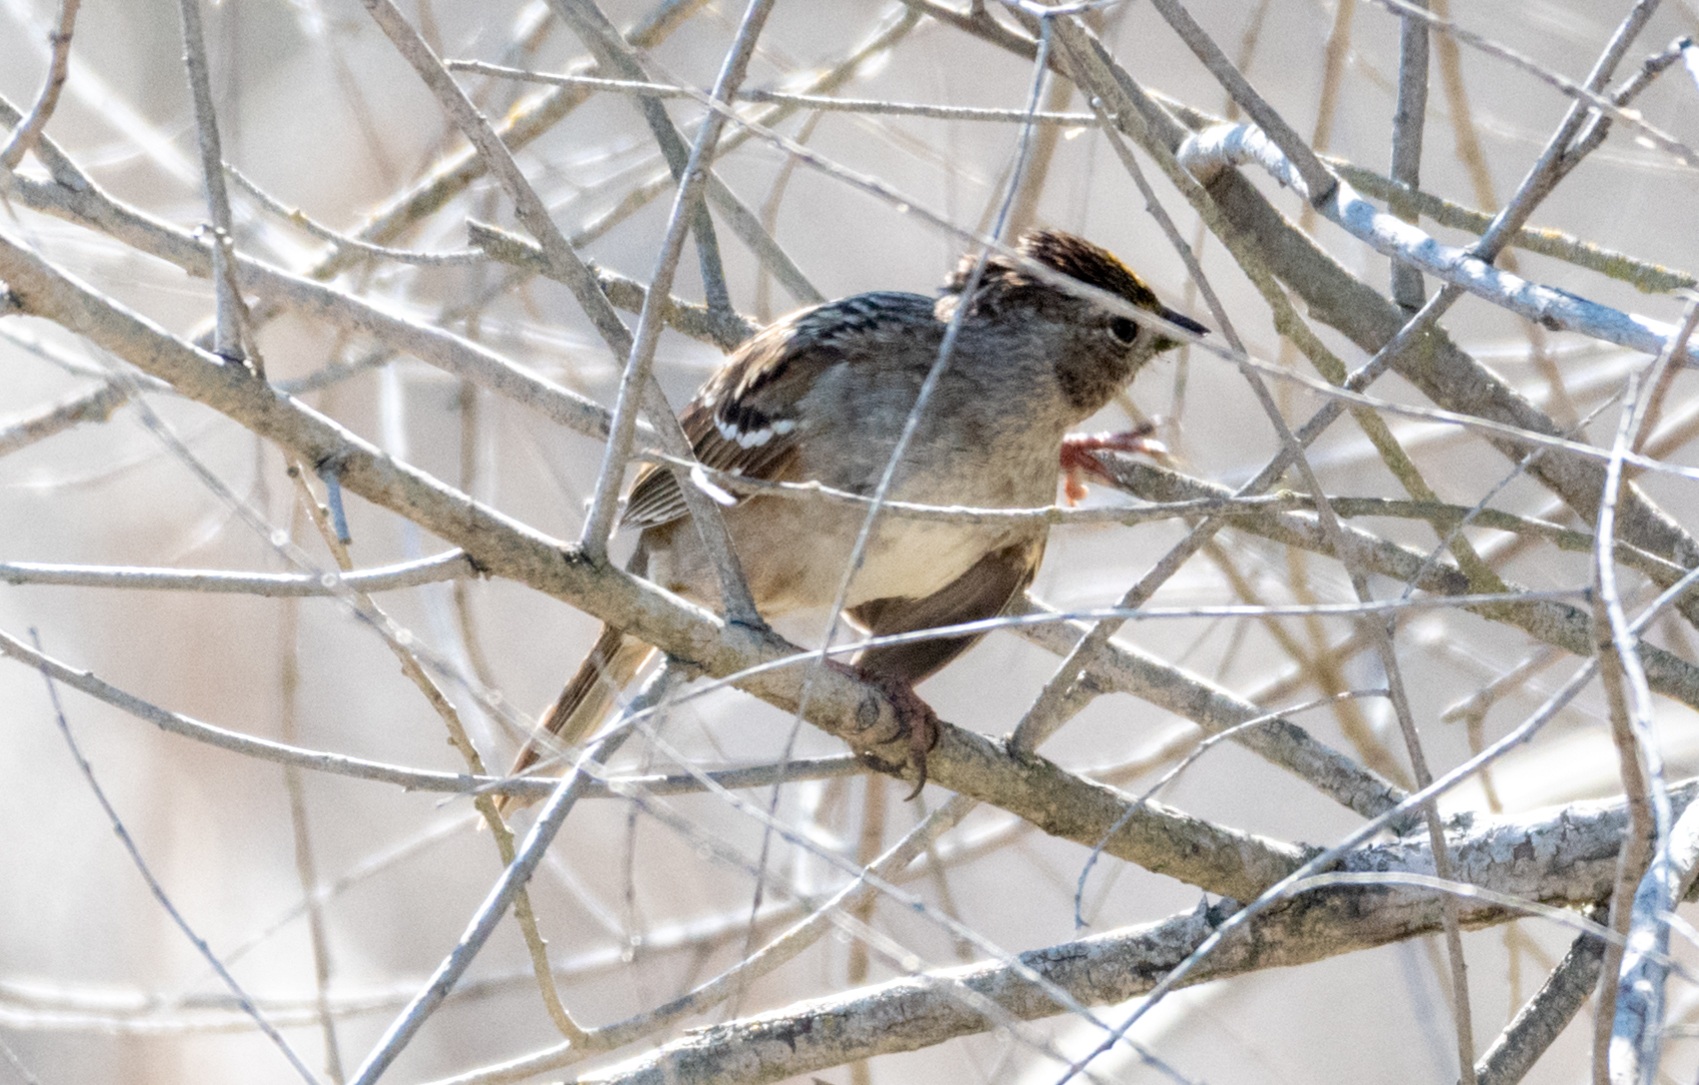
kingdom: Animalia
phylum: Chordata
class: Aves
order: Passeriformes
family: Passerellidae
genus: Zonotrichia
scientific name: Zonotrichia atricapilla
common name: Golden-crowned sparrow
